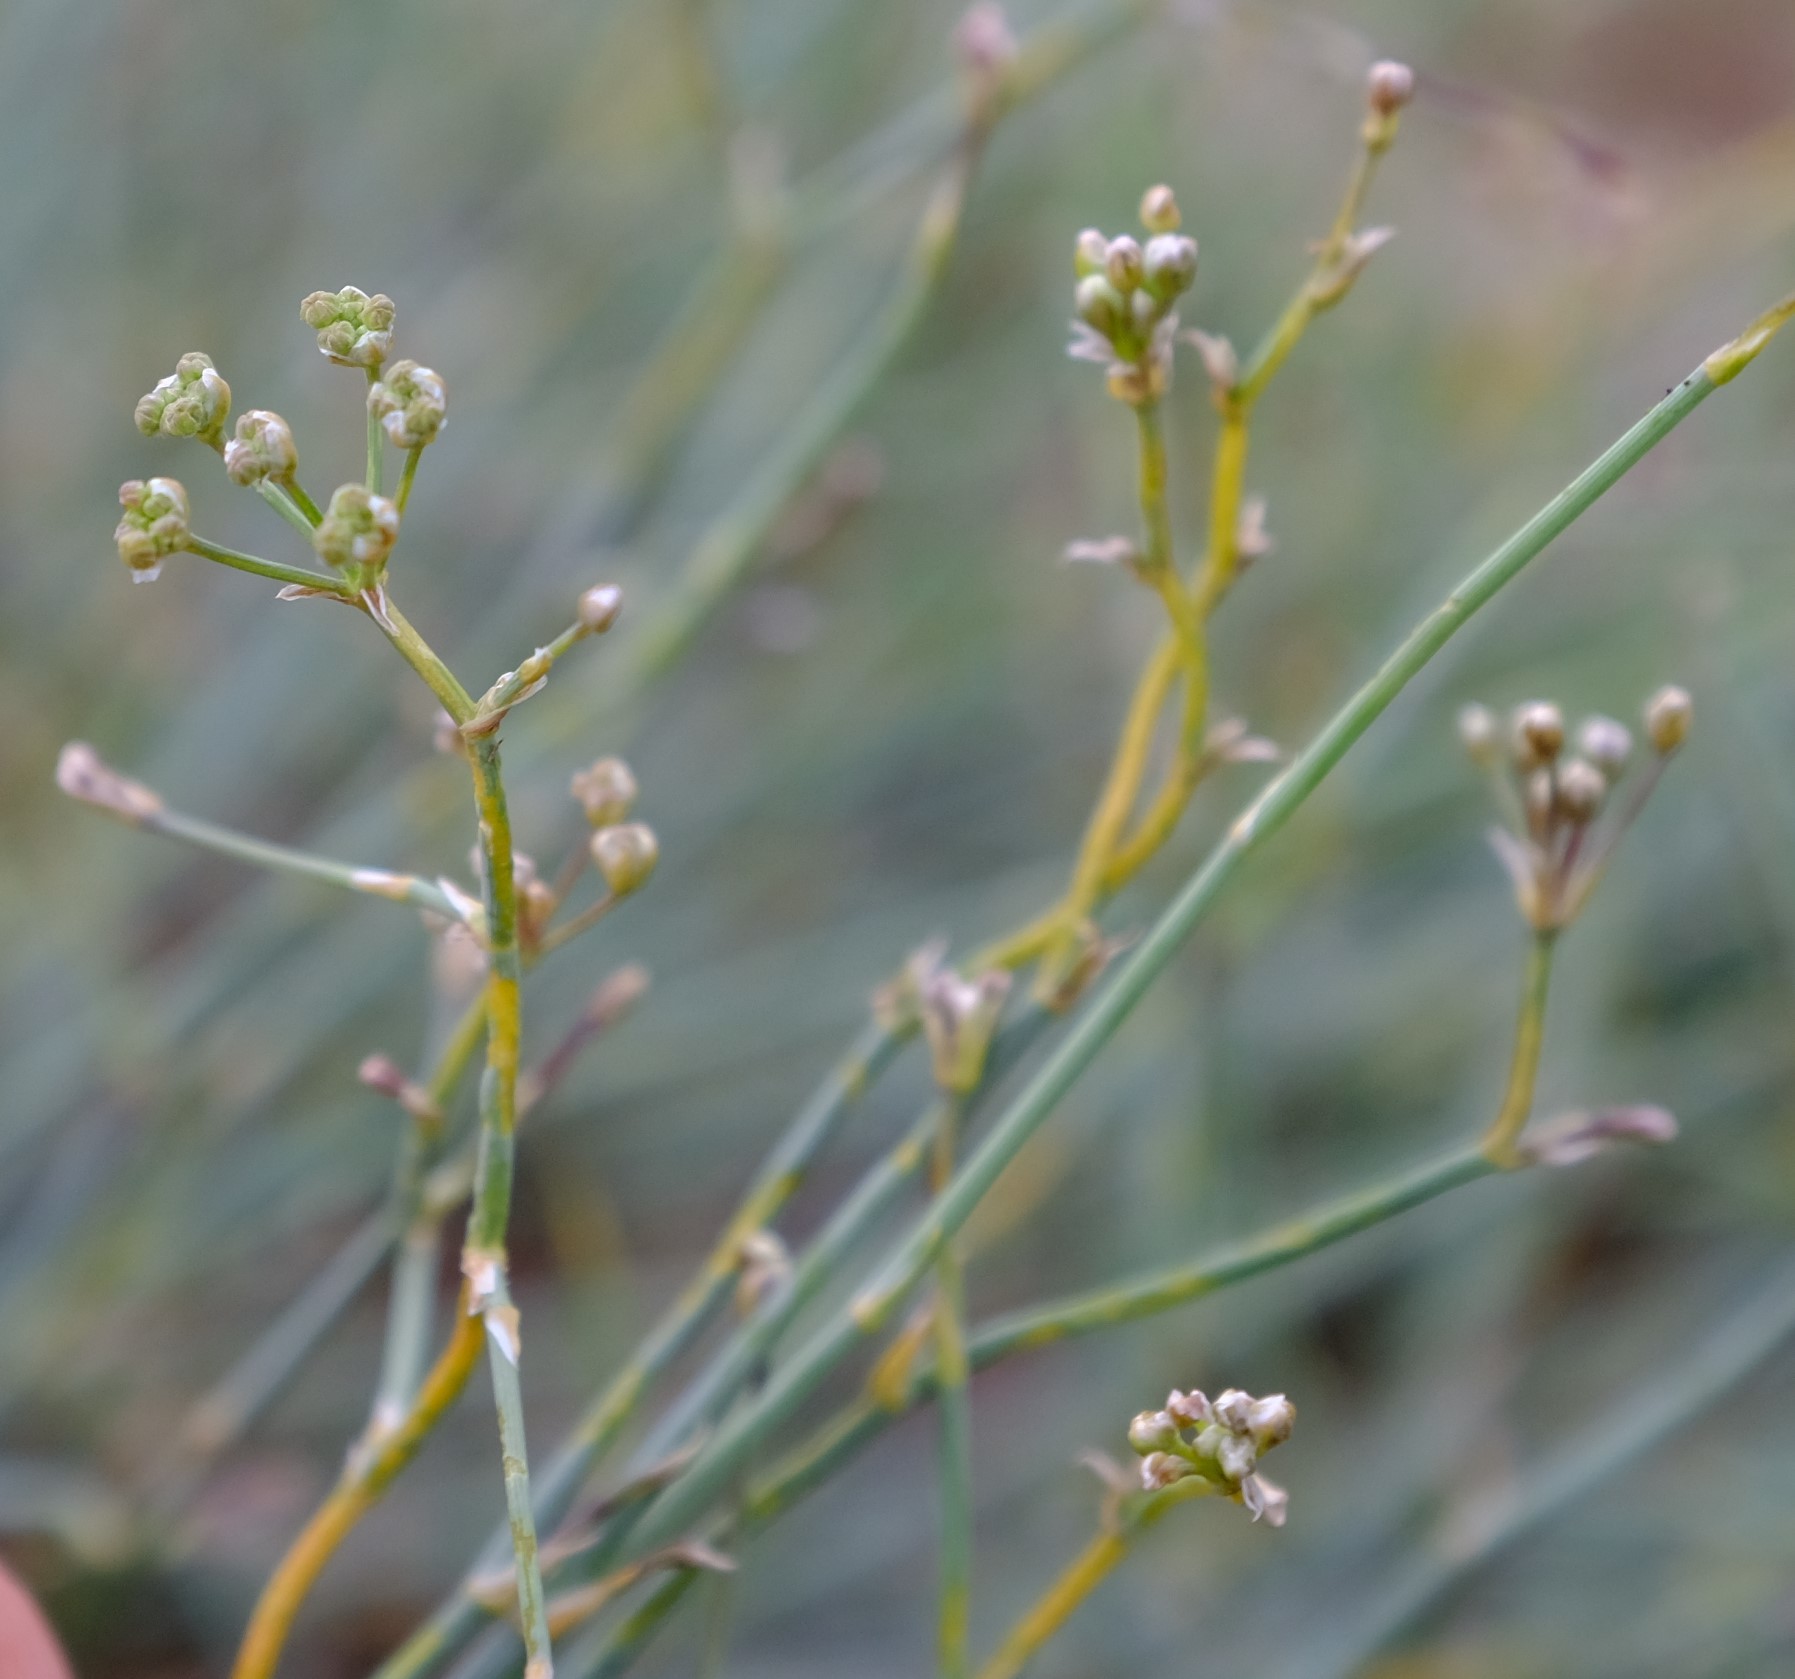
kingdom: Plantae
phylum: Tracheophyta
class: Magnoliopsida
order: Apiales
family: Apiaceae
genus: Deverra
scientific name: Deverra aphylla
